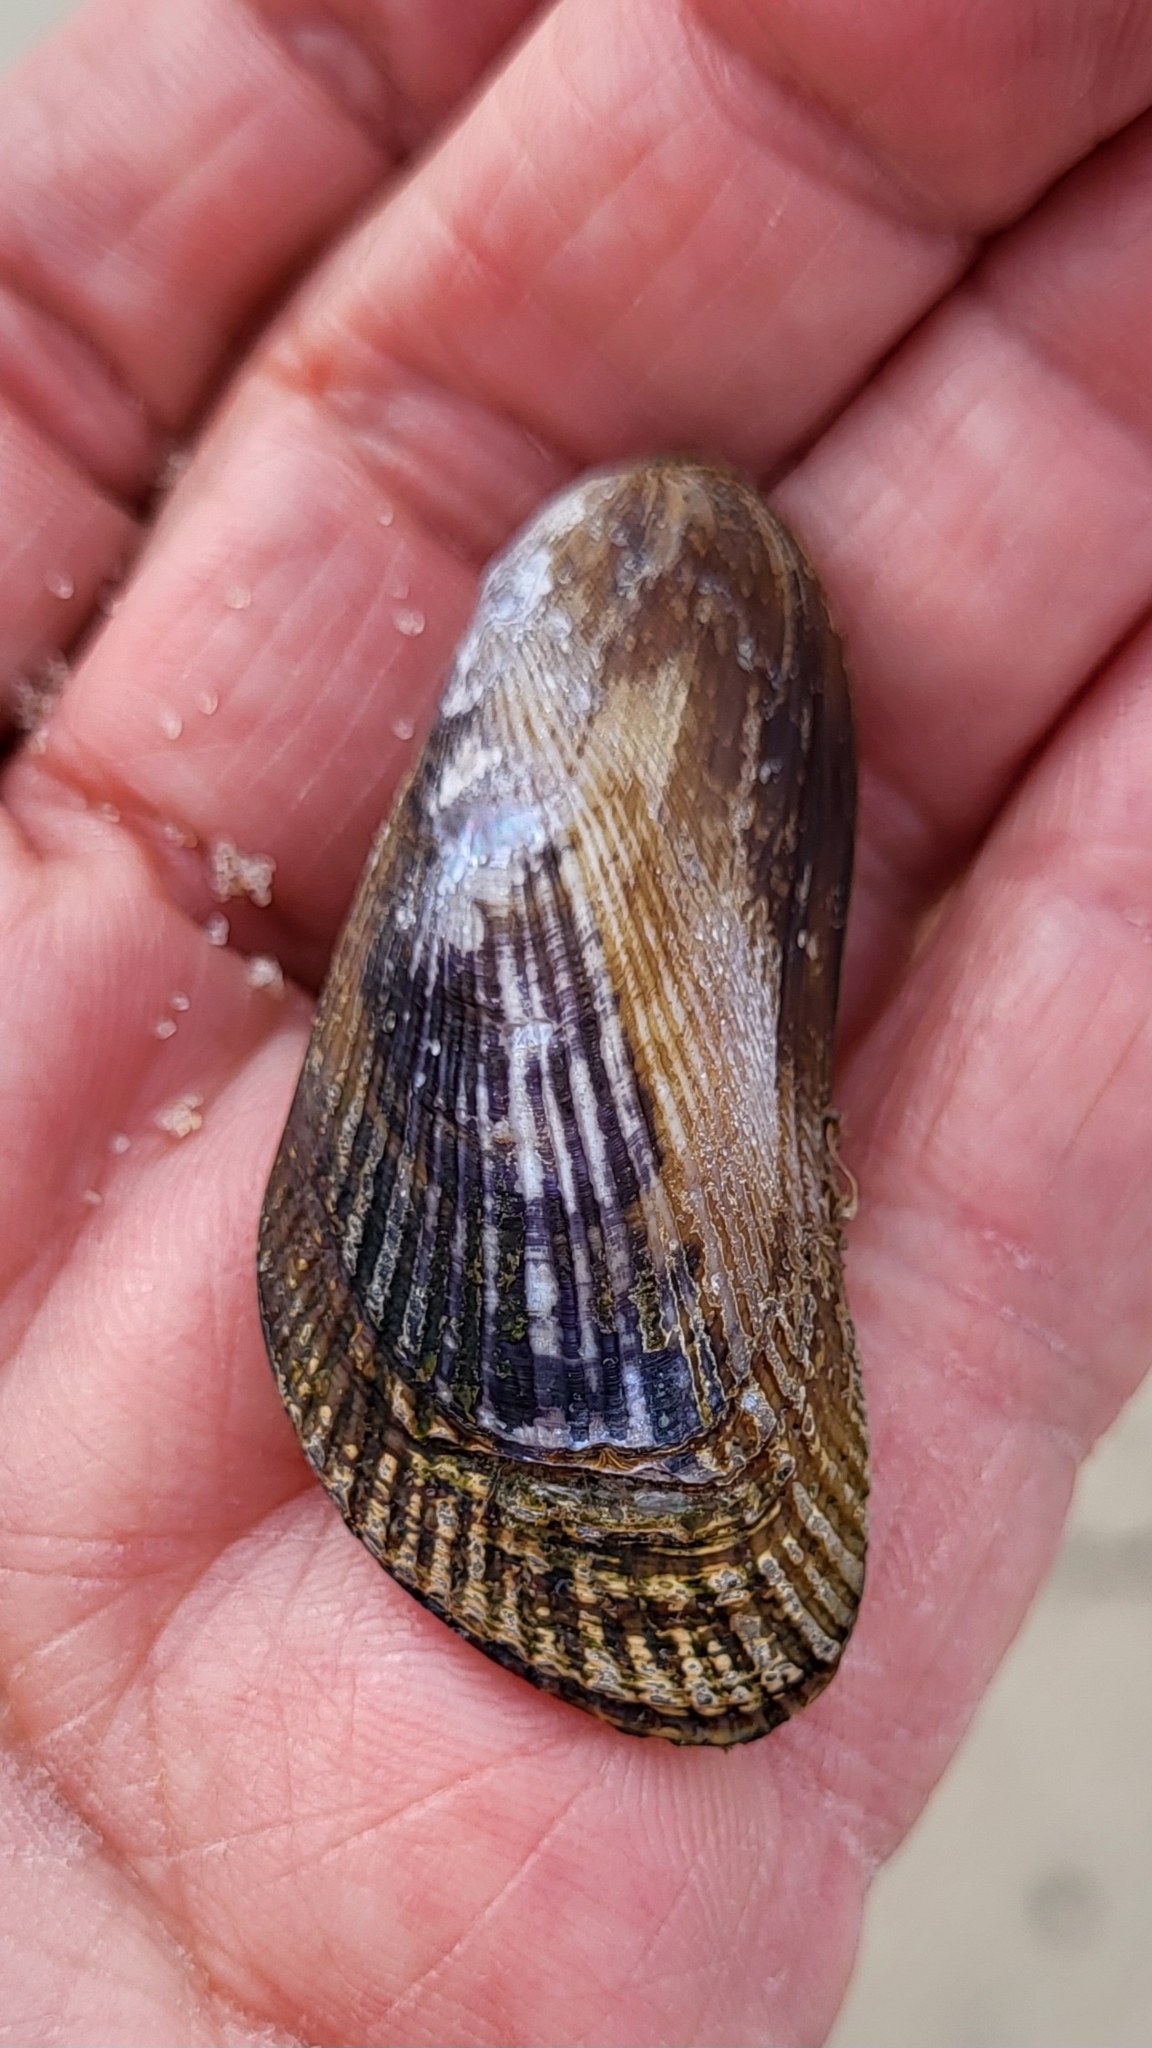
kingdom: Animalia
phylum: Mollusca
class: Bivalvia
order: Mytilida
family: Mytilidae
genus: Geukensia
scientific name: Geukensia demissa
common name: Ribbed mussel
